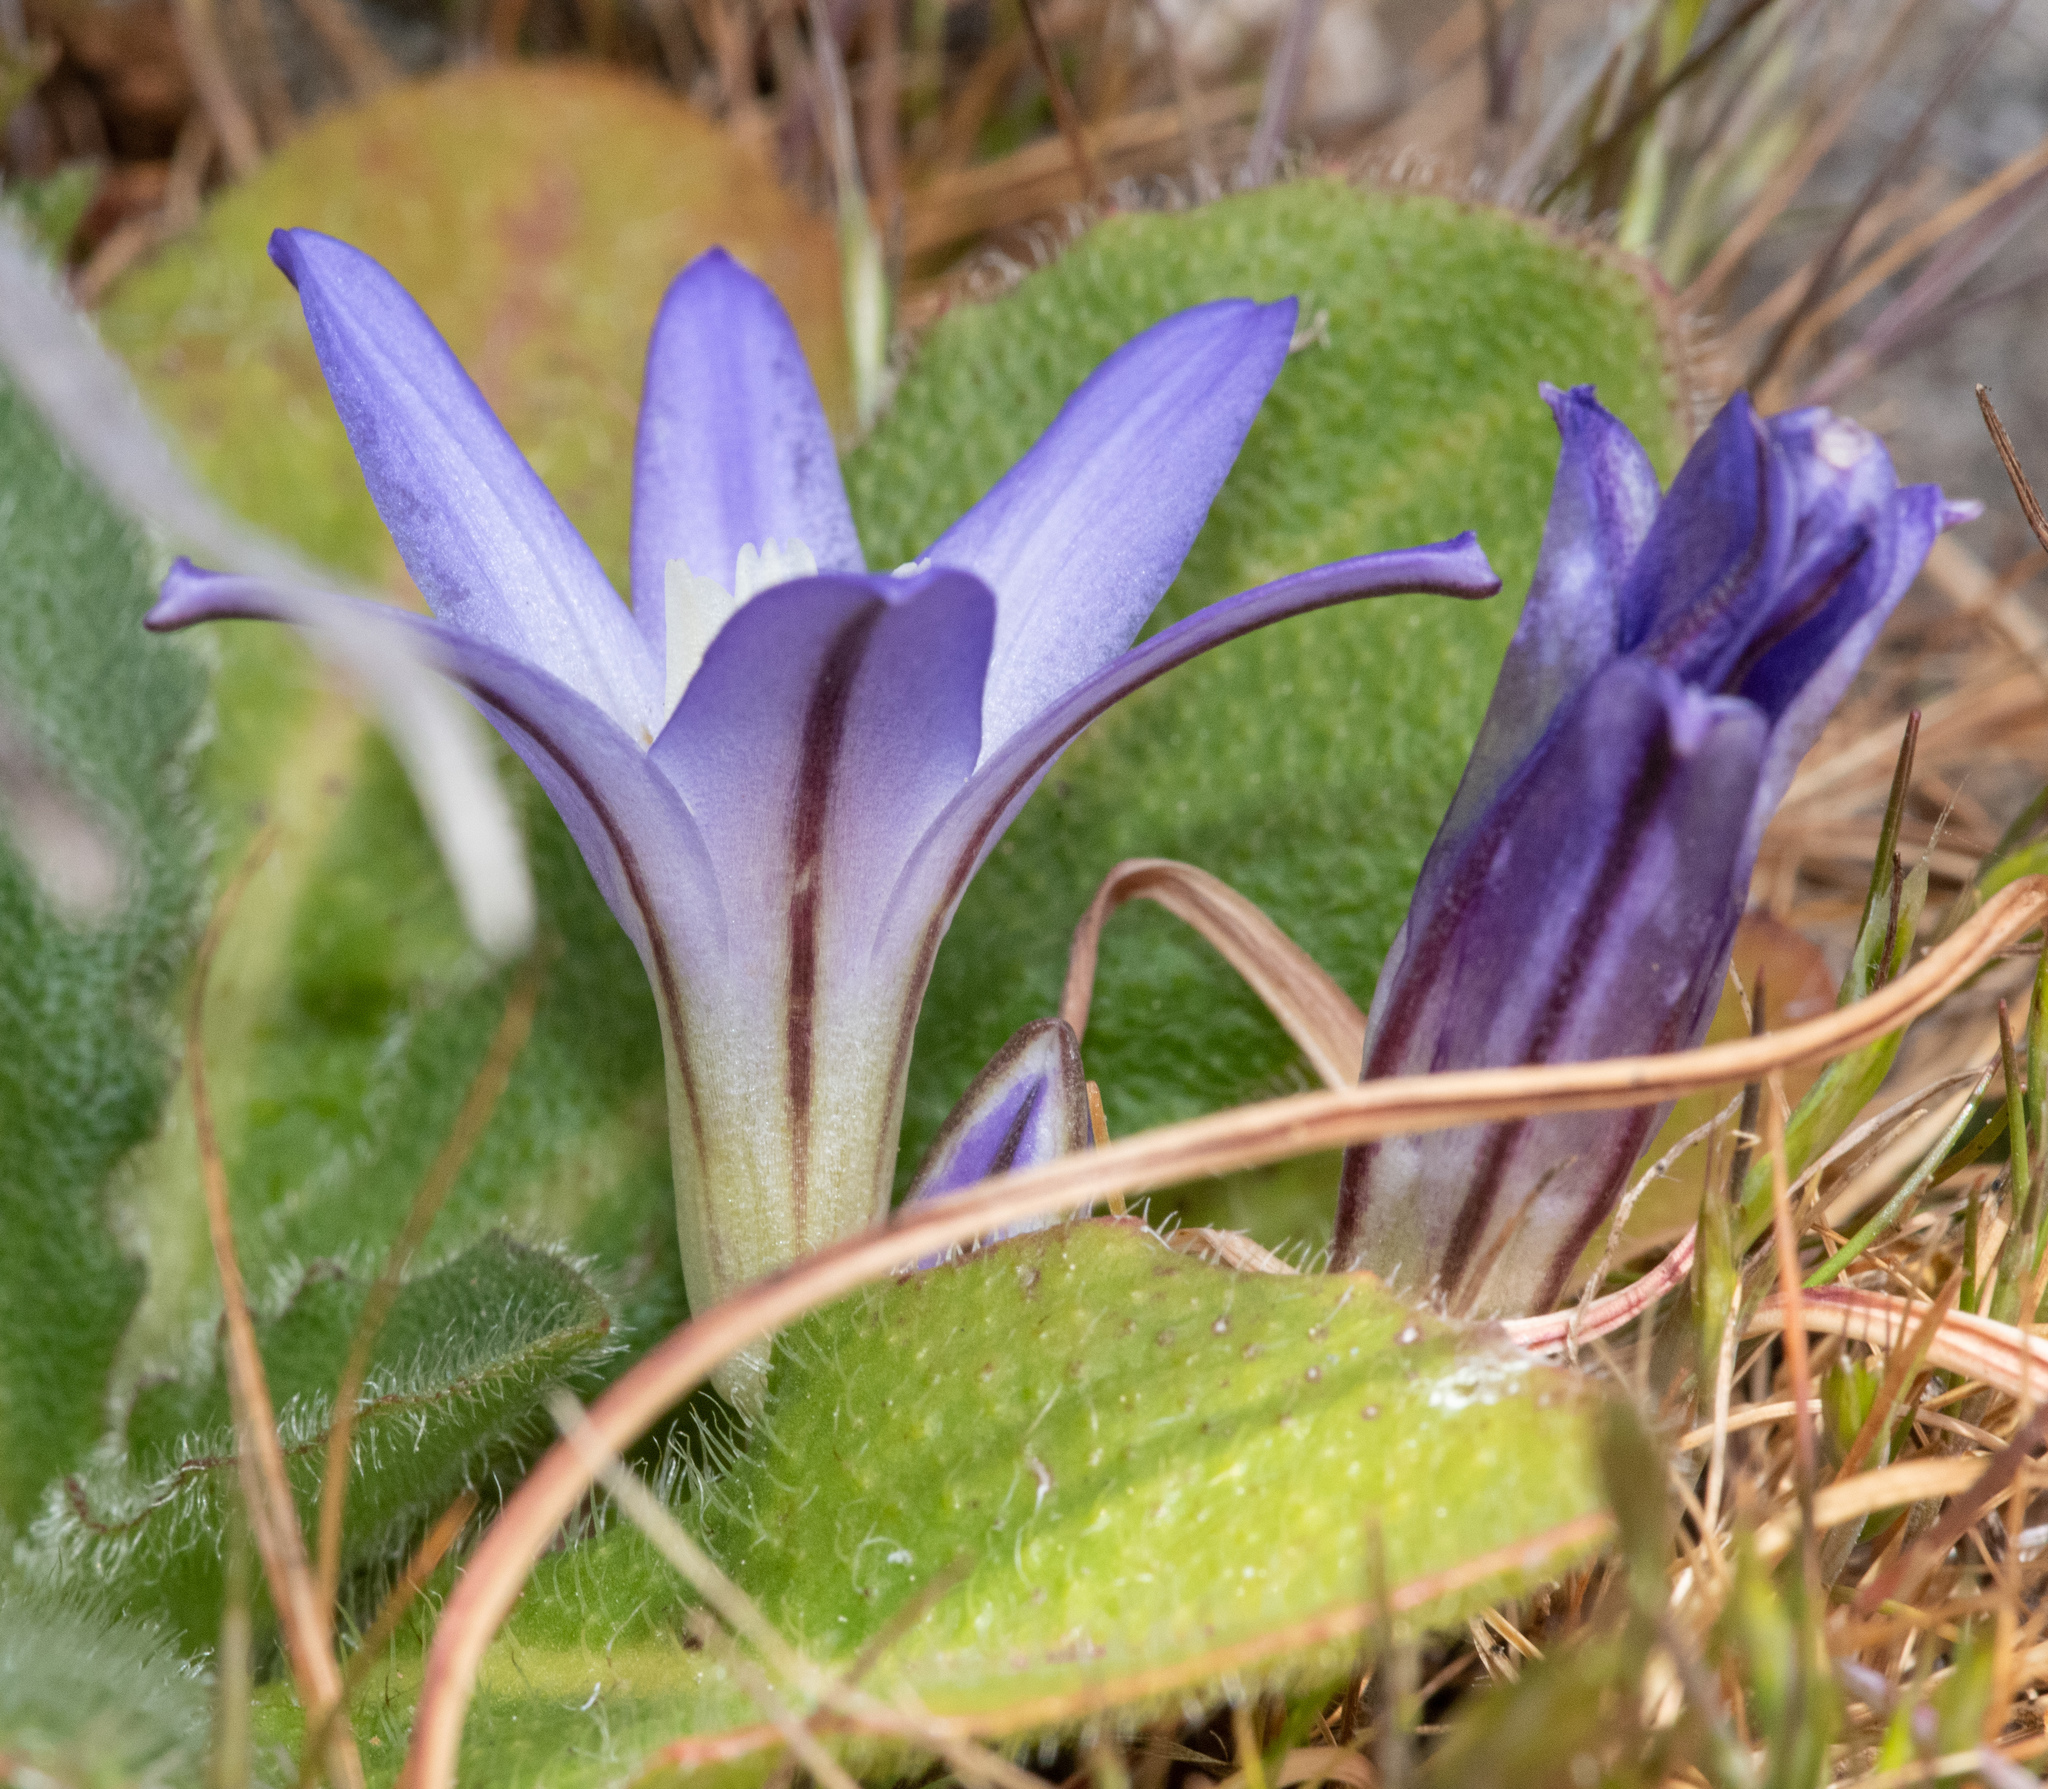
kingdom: Plantae
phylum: Tracheophyta
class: Liliopsida
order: Asparagales
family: Asparagaceae
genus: Brodiaea
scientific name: Brodiaea terrestris
